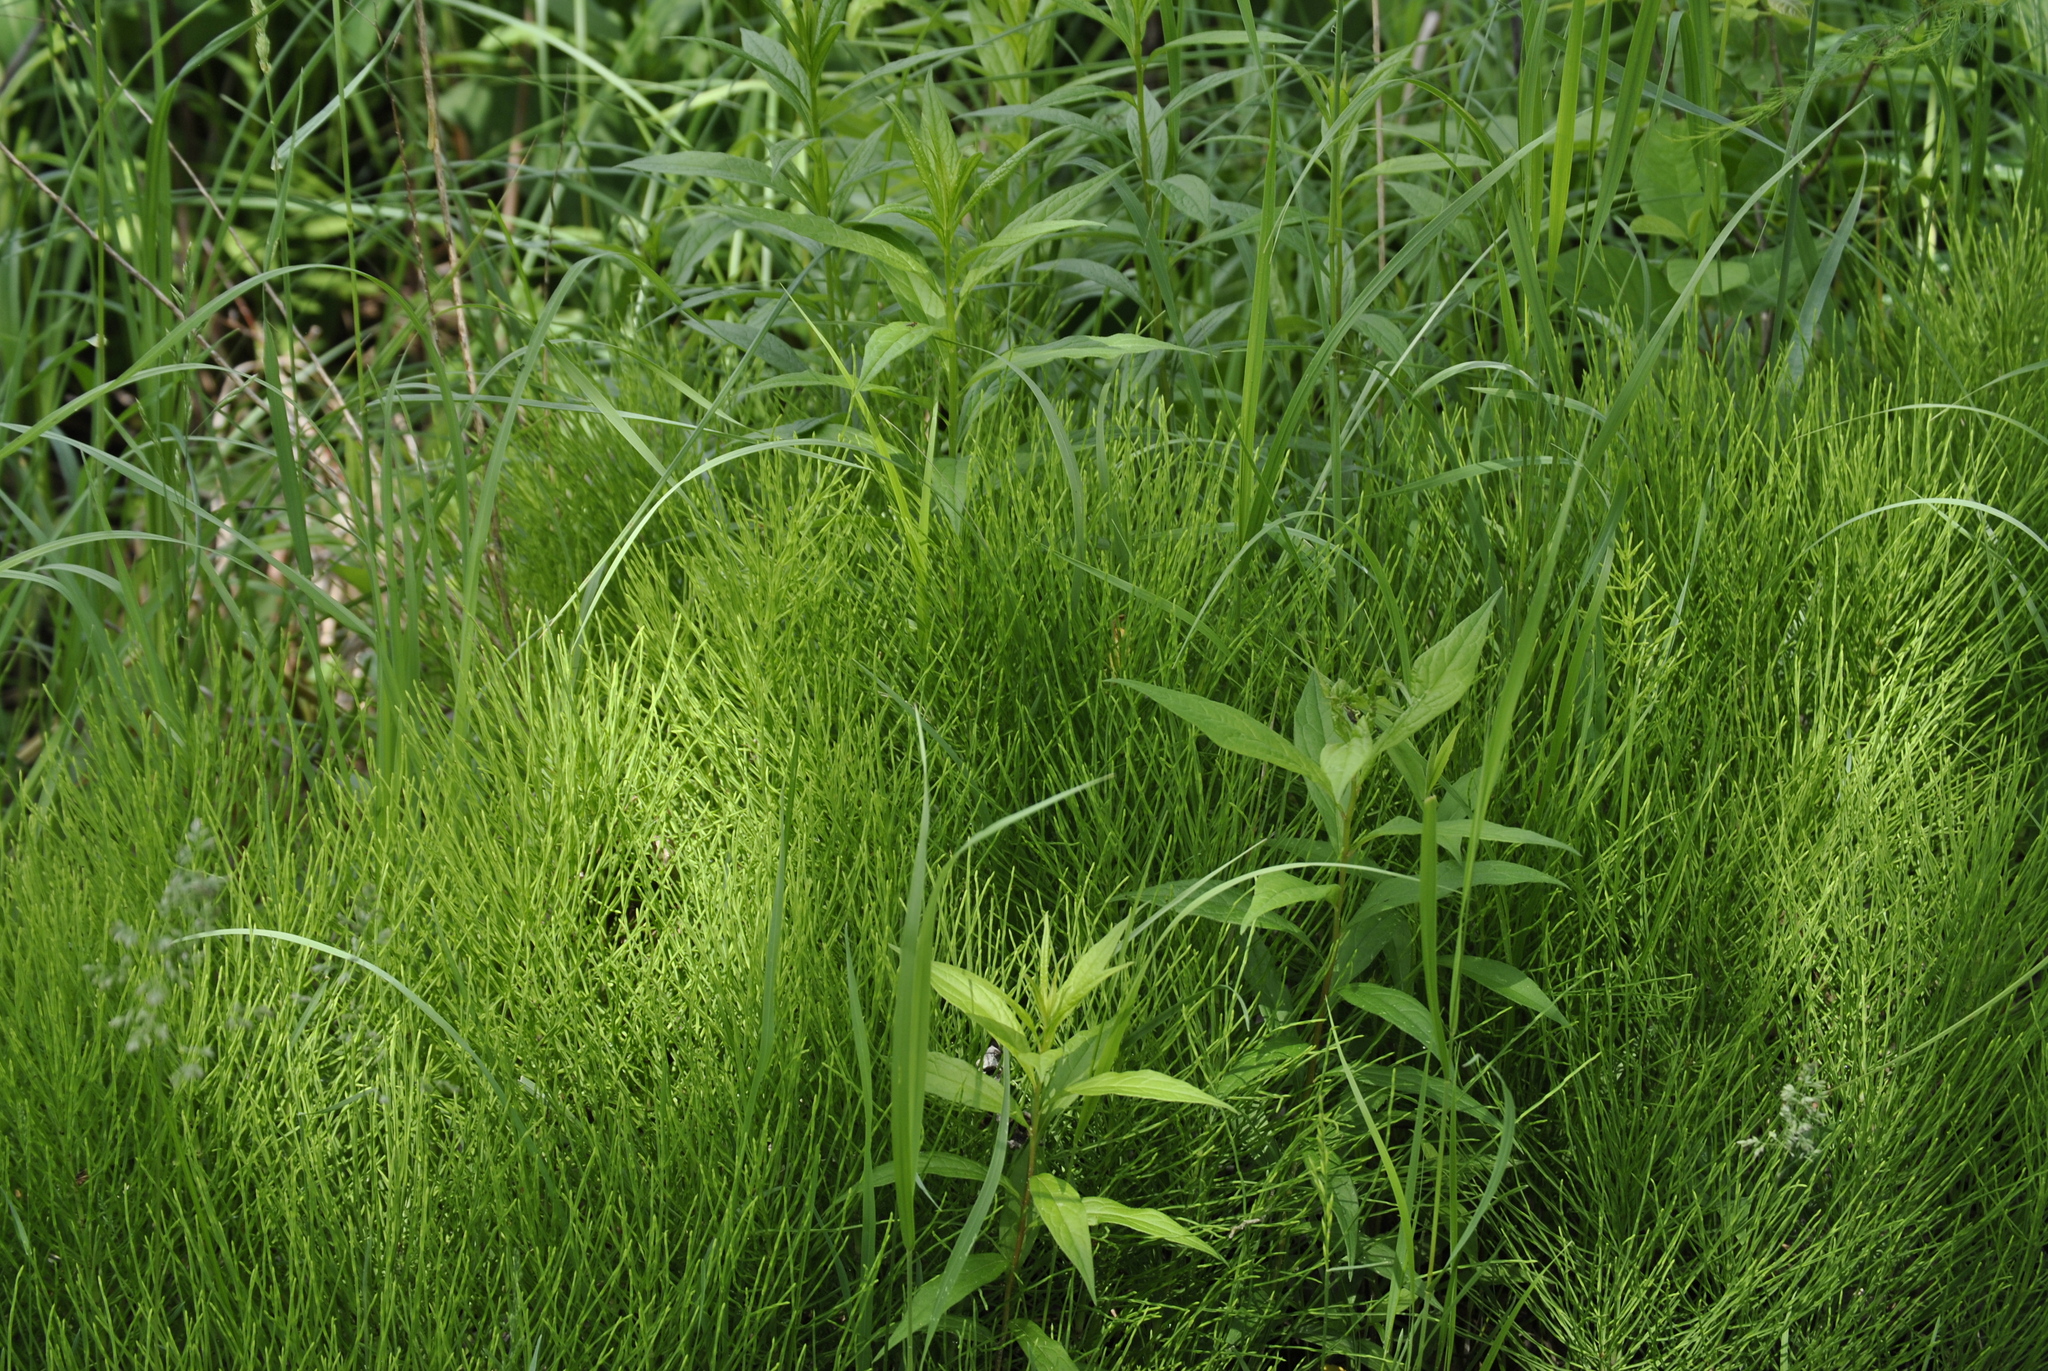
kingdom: Plantae
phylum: Tracheophyta
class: Polypodiopsida
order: Equisetales
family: Equisetaceae
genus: Equisetum
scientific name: Equisetum arvense
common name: Field horsetail
